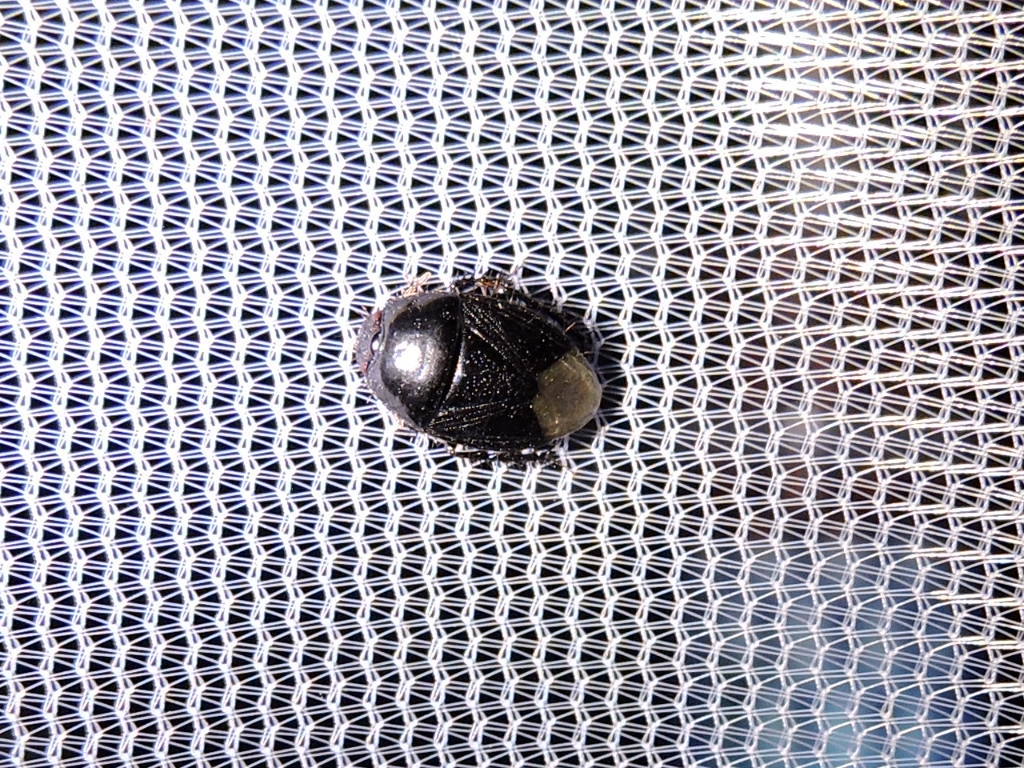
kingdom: Animalia
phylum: Arthropoda
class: Insecta
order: Hemiptera
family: Cydnidae
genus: Pangaeus
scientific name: Pangaeus bilineatus
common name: Burrower bug
